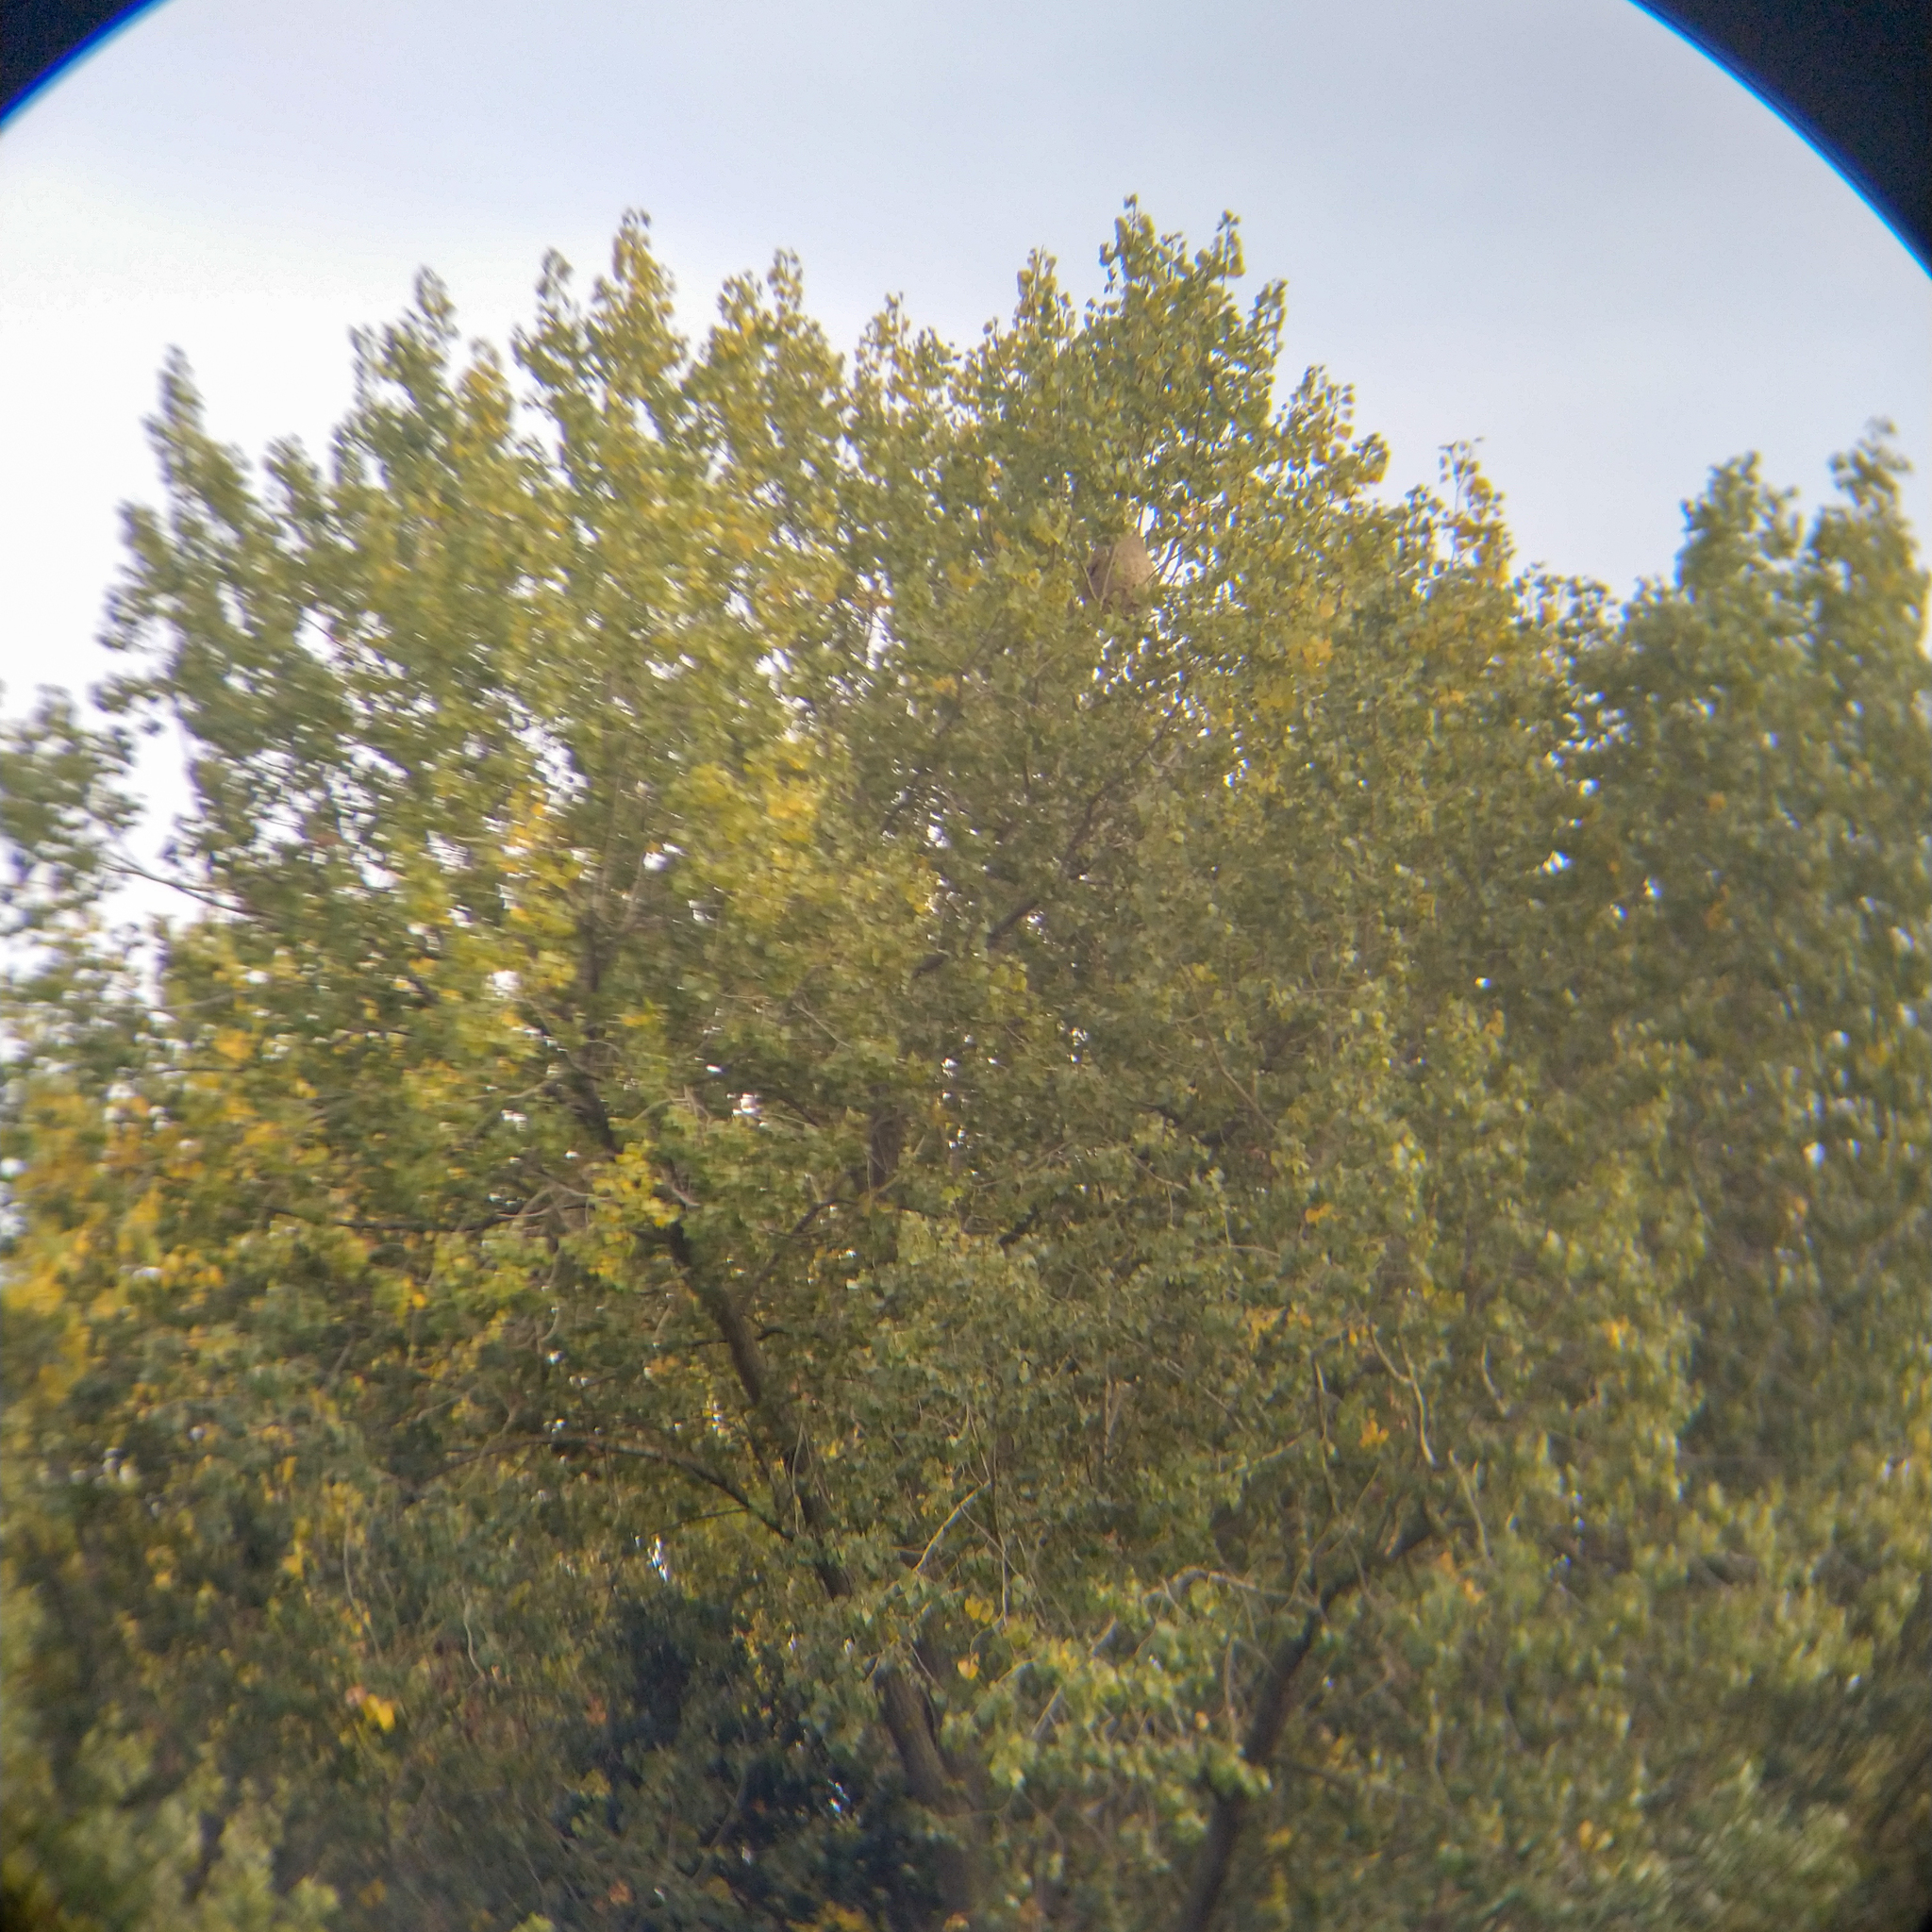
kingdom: Animalia
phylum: Arthropoda
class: Insecta
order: Hymenoptera
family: Vespidae
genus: Vespa
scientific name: Vespa velutina
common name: Asian hornet
